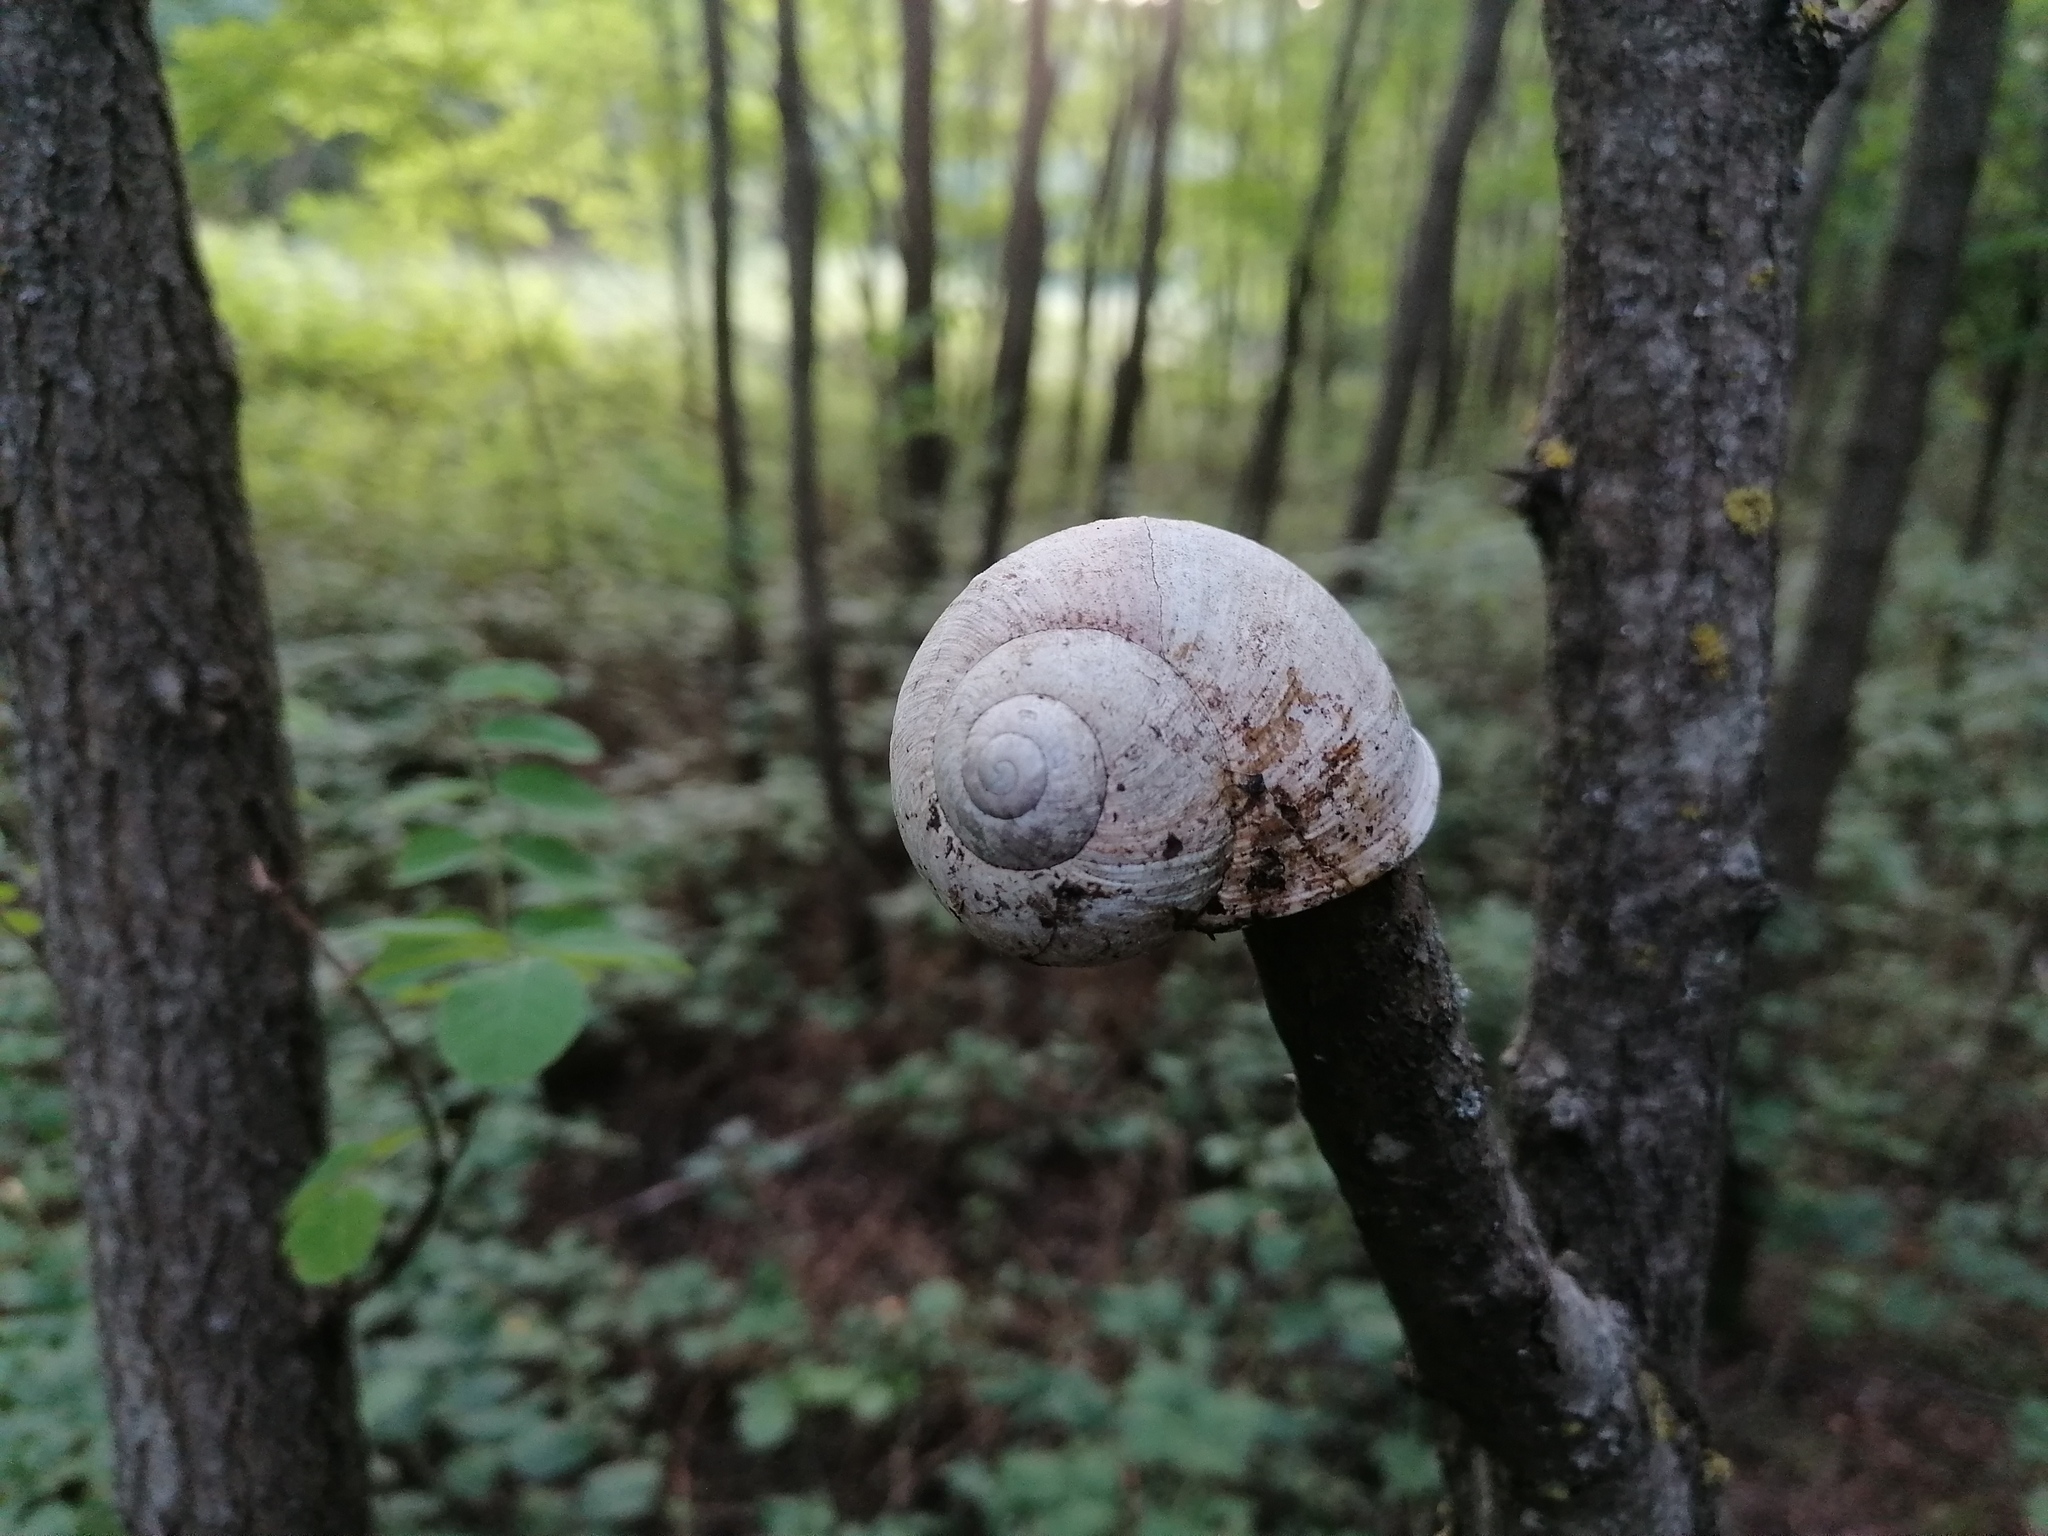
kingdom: Animalia
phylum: Mollusca
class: Gastropoda
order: Stylommatophora
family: Helicidae
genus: Helix
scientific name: Helix pomatia
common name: Roman snail
